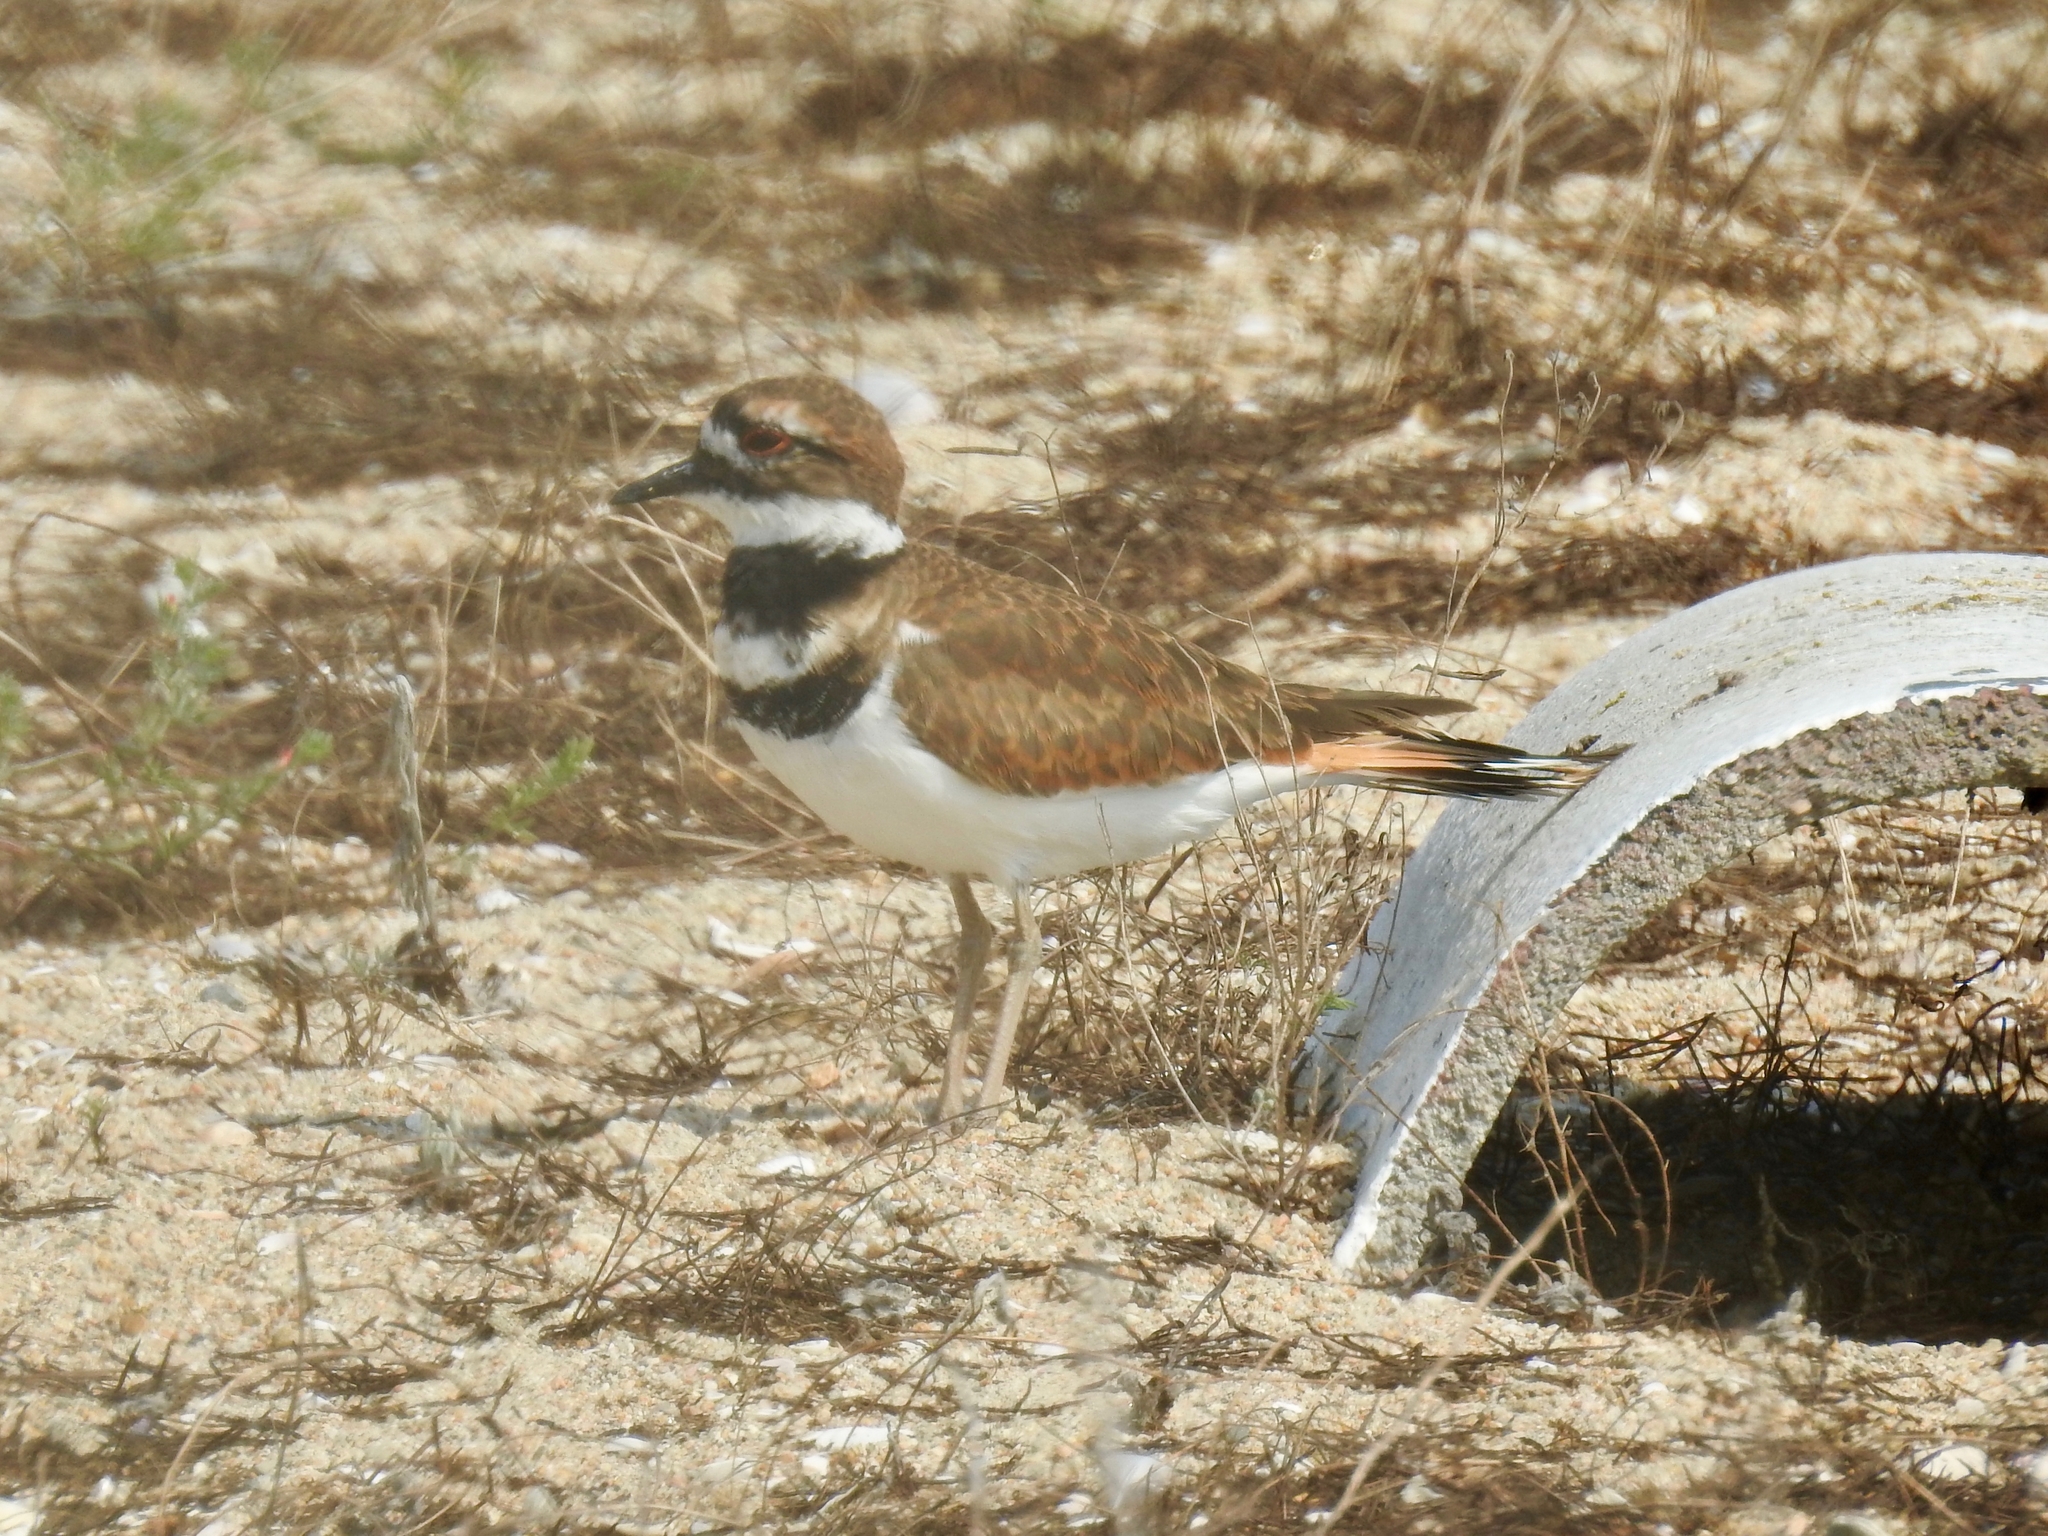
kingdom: Animalia
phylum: Chordata
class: Aves
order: Charadriiformes
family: Charadriidae
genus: Charadrius
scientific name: Charadrius vociferus
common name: Killdeer
